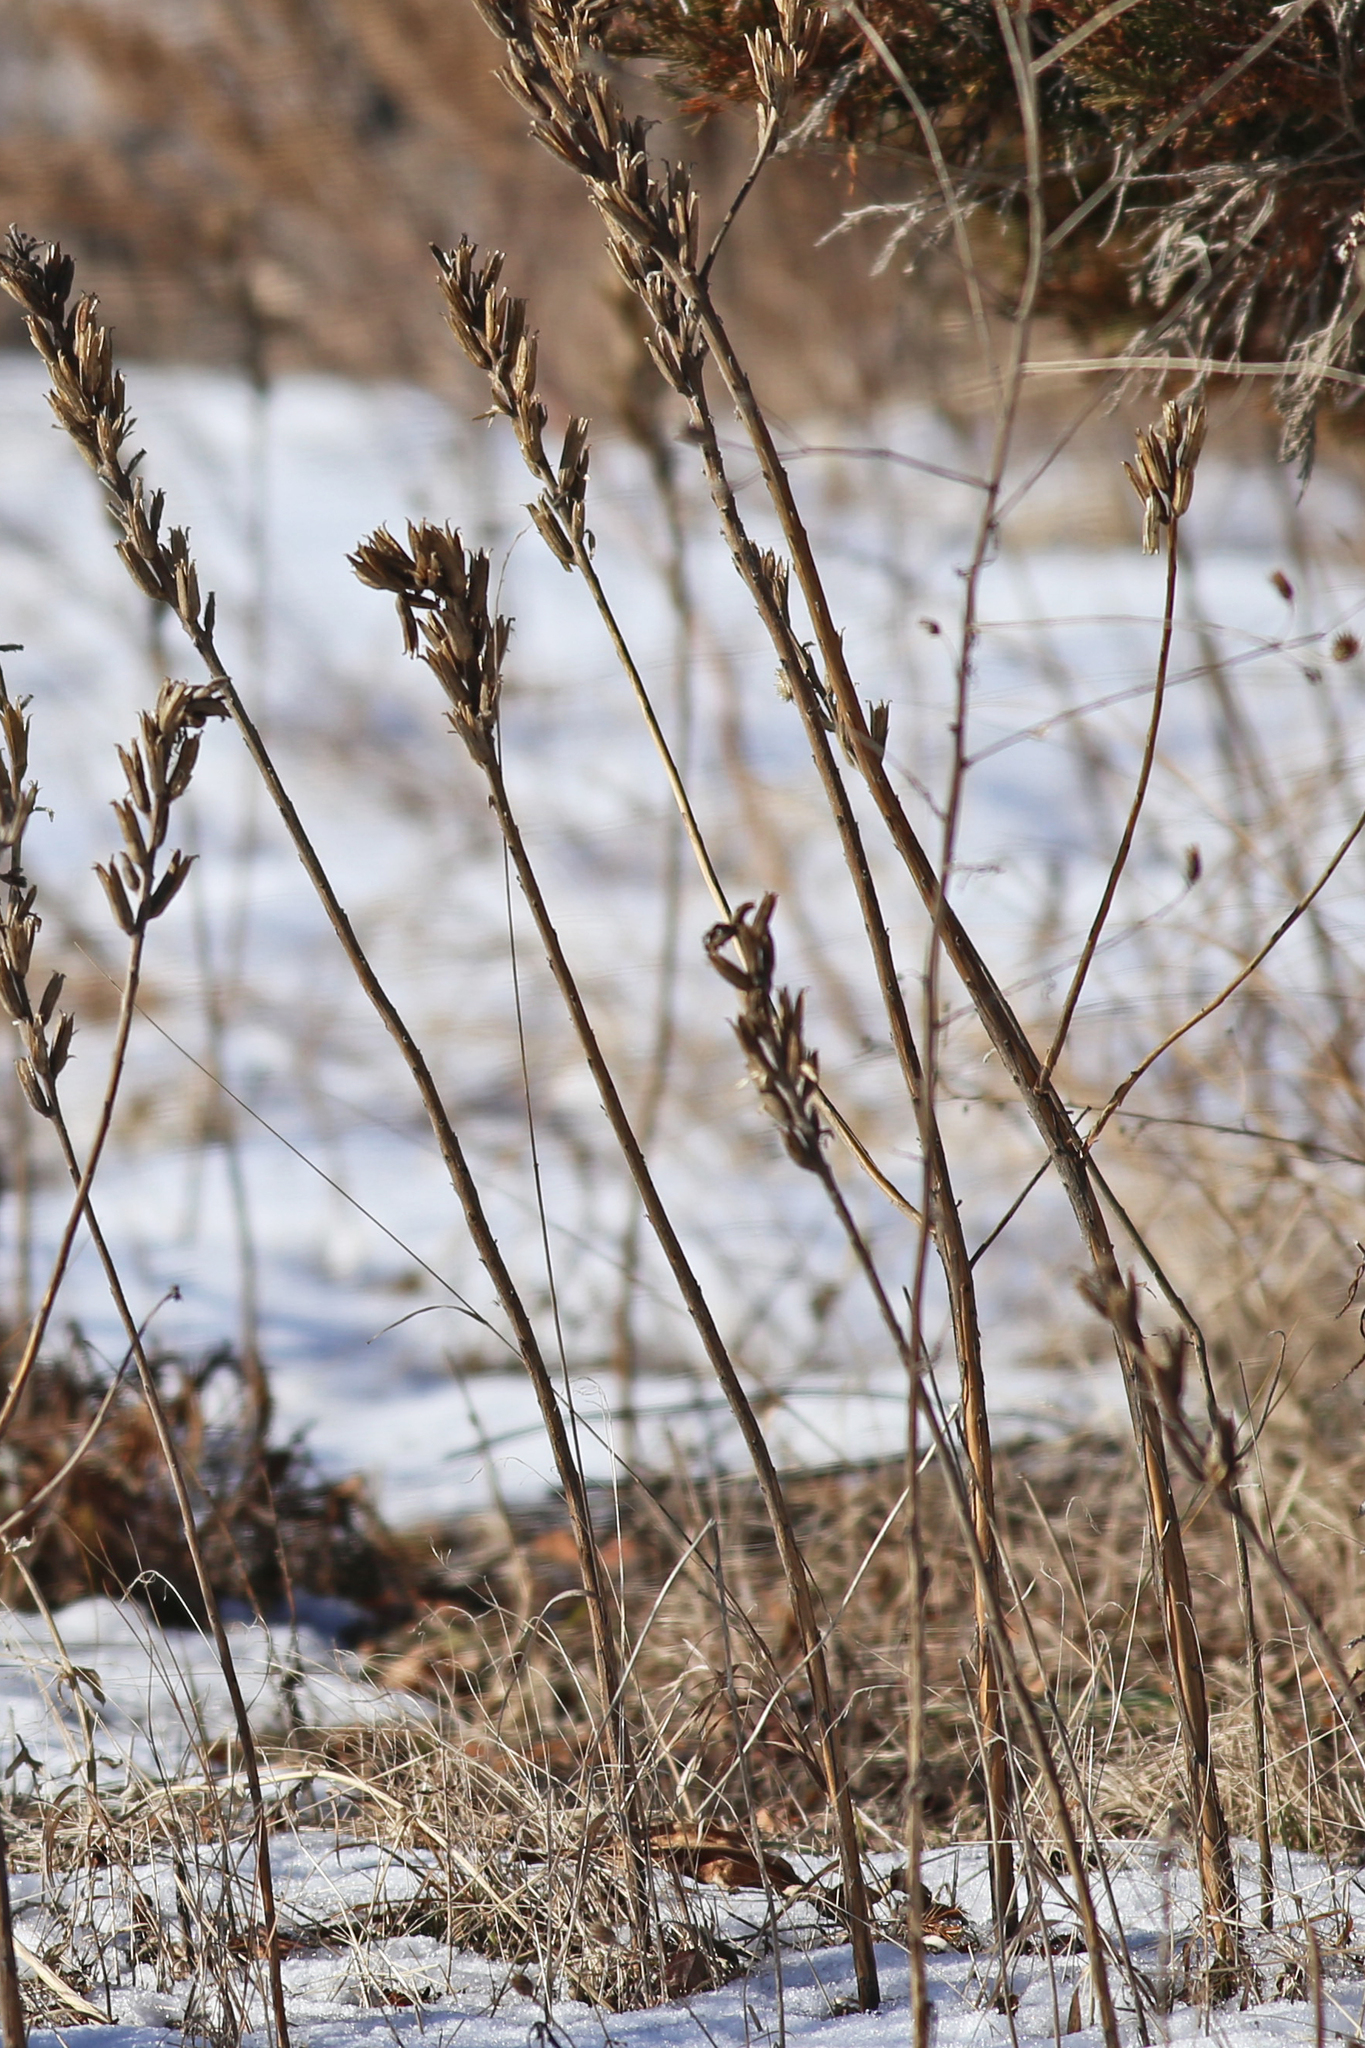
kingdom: Plantae
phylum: Tracheophyta
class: Magnoliopsida
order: Myrtales
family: Onagraceae
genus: Oenothera
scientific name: Oenothera biennis
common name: Common evening-primrose
